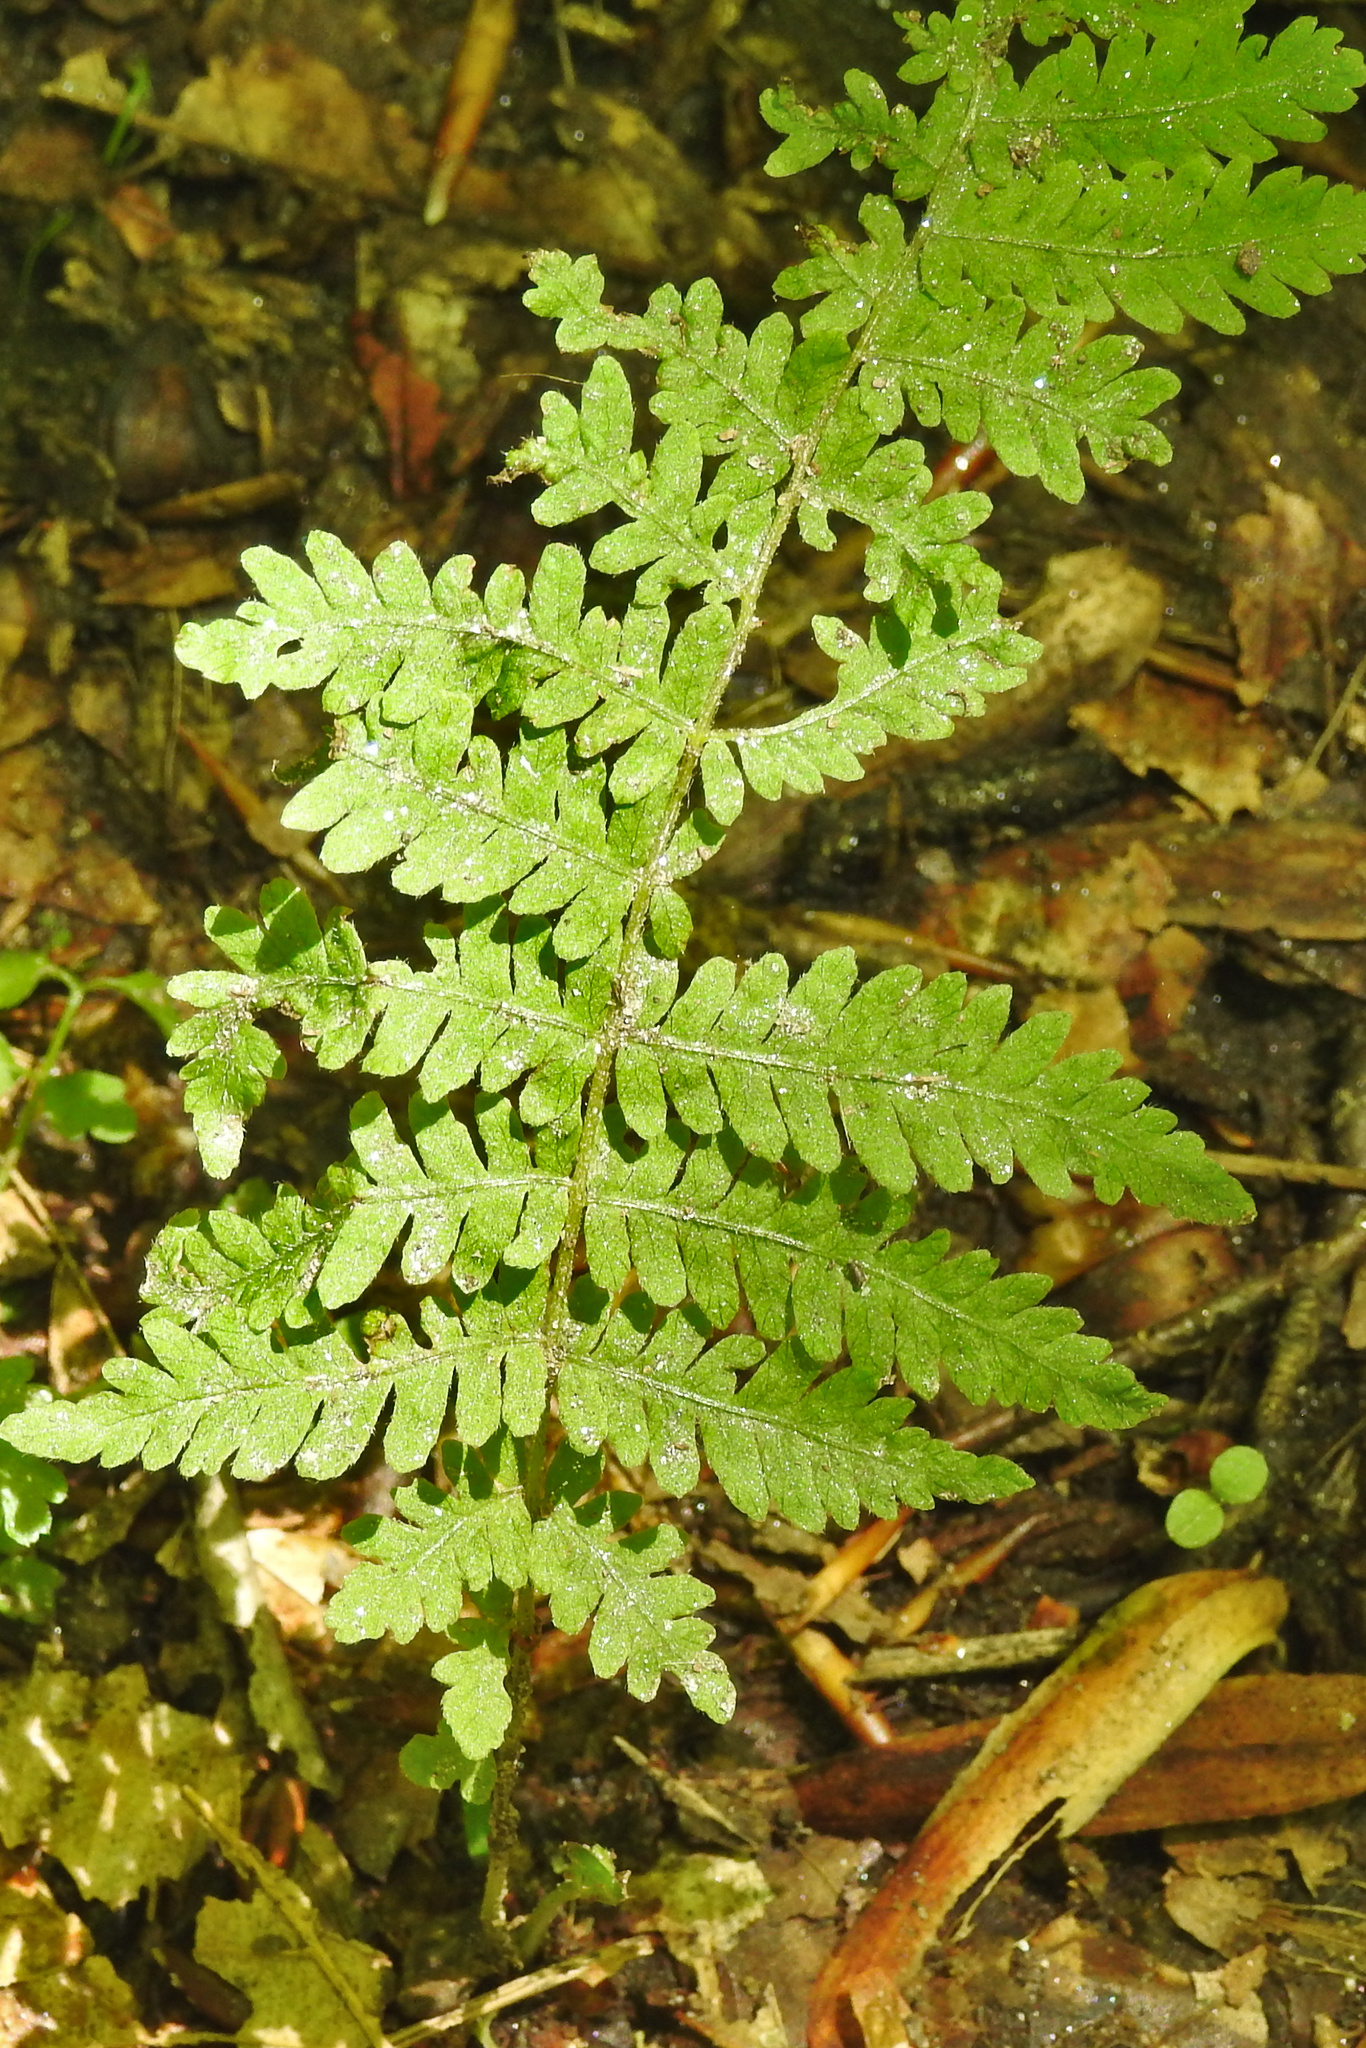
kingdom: Plantae
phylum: Tracheophyta
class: Polypodiopsida
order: Polypodiales
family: Thelypteridaceae
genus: Amauropelta
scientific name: Amauropelta noveboracensis
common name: New york fern
